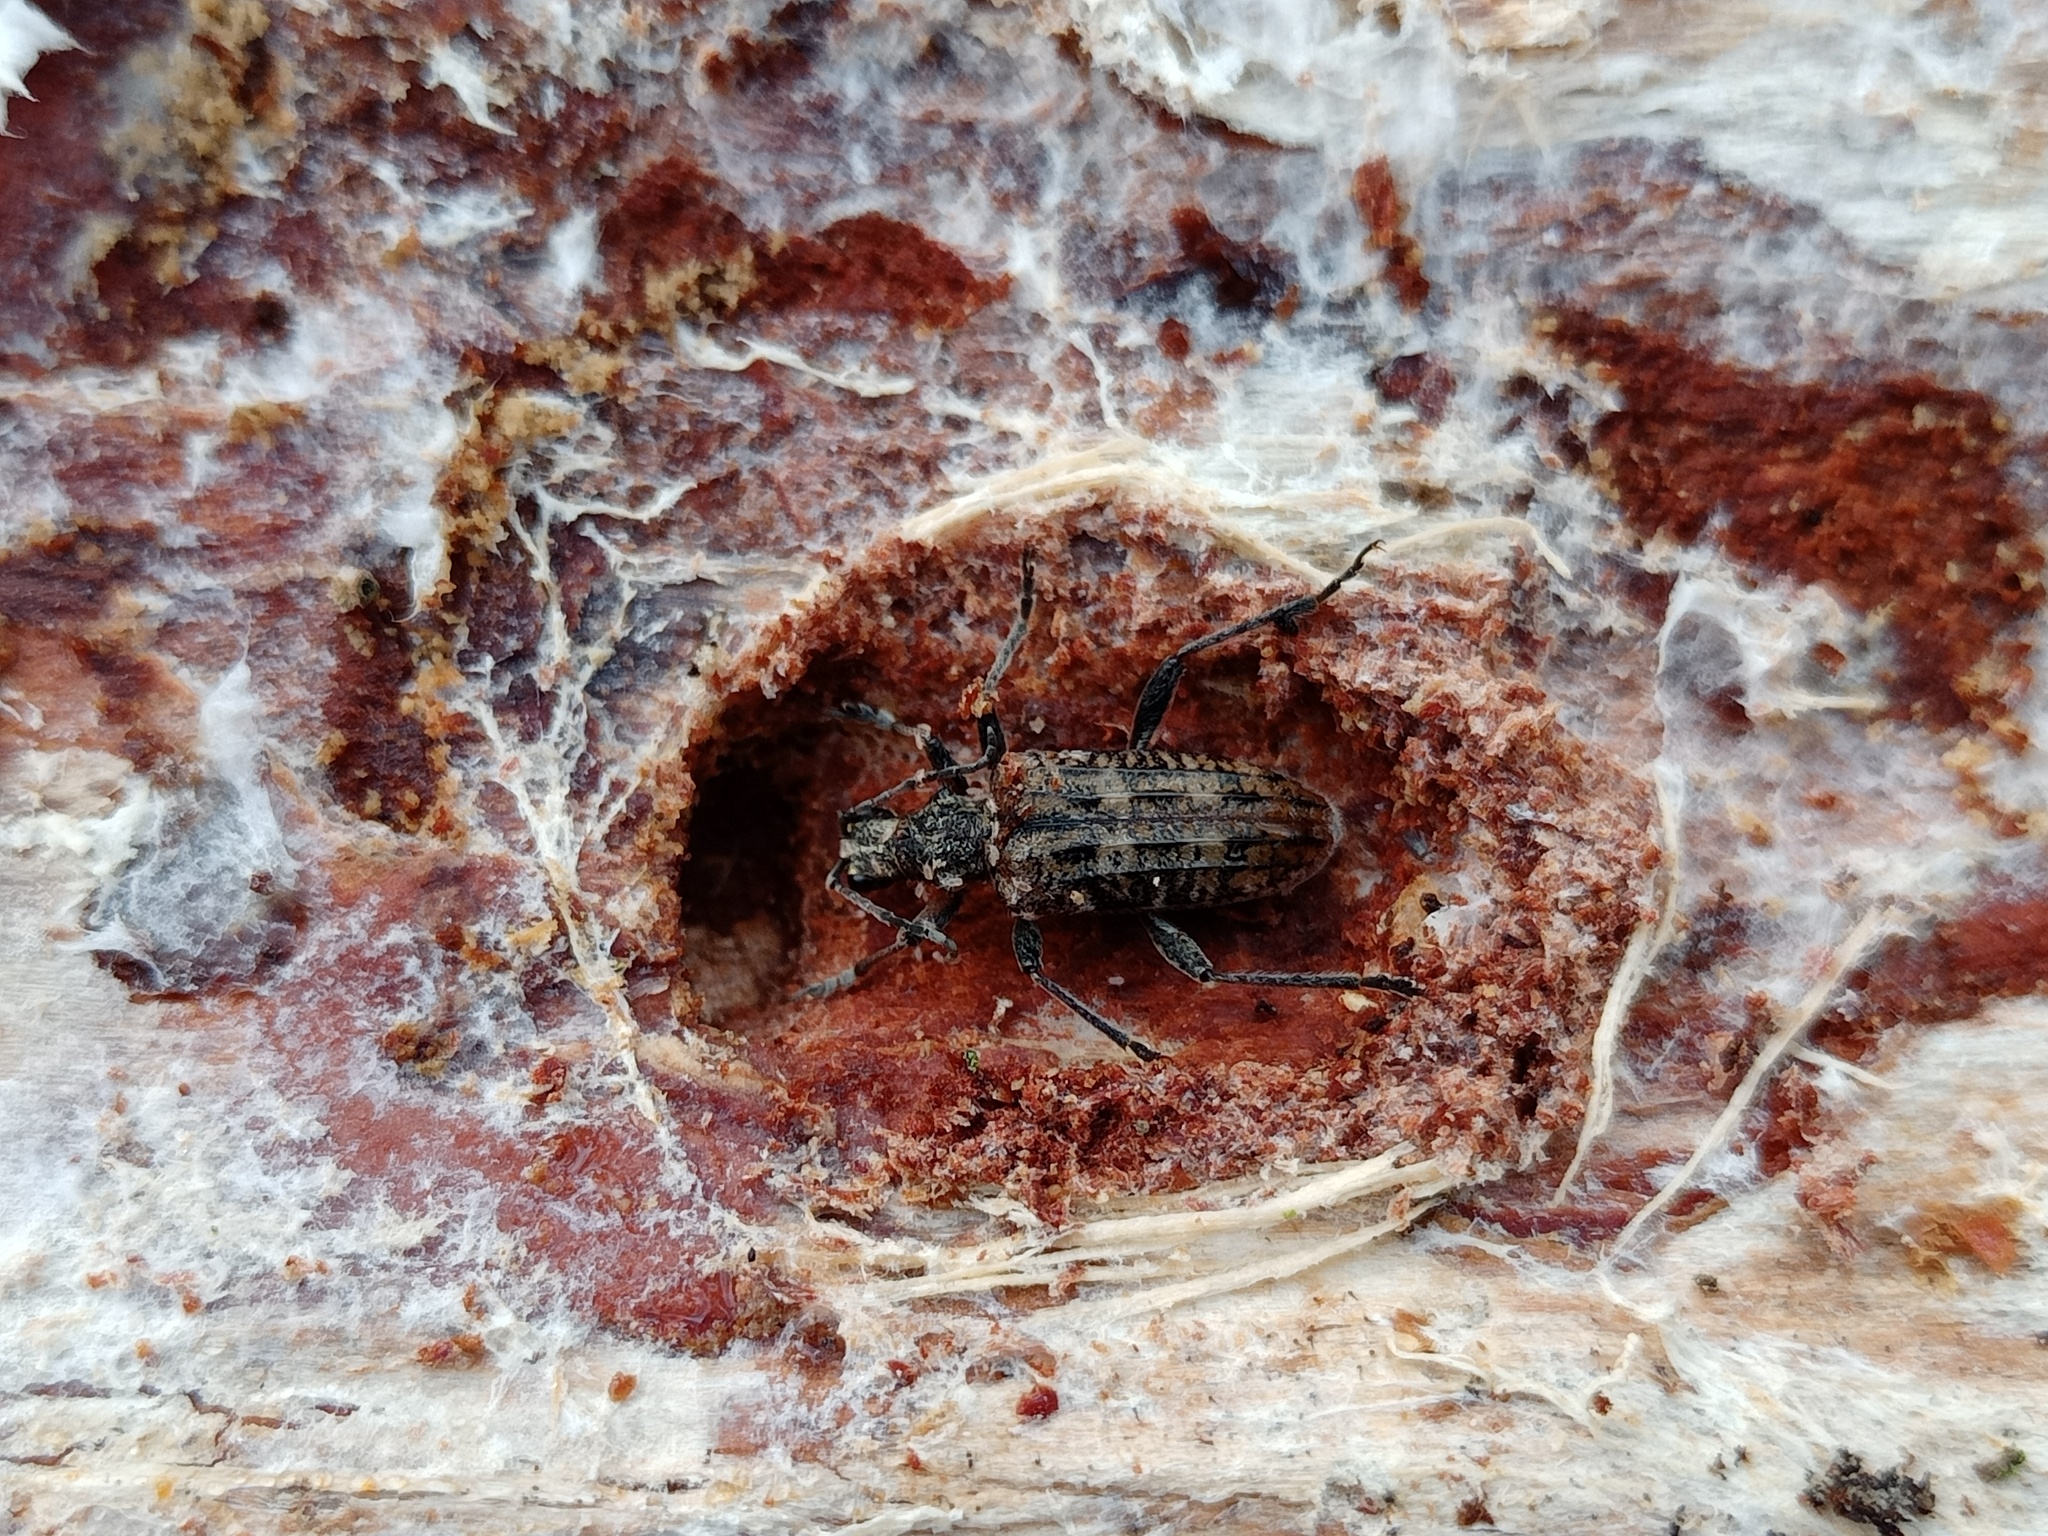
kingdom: Animalia
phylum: Arthropoda
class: Insecta
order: Coleoptera
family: Cerambycidae
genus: Rhagium
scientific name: Rhagium inquisitor
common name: Ribbed pine borer
